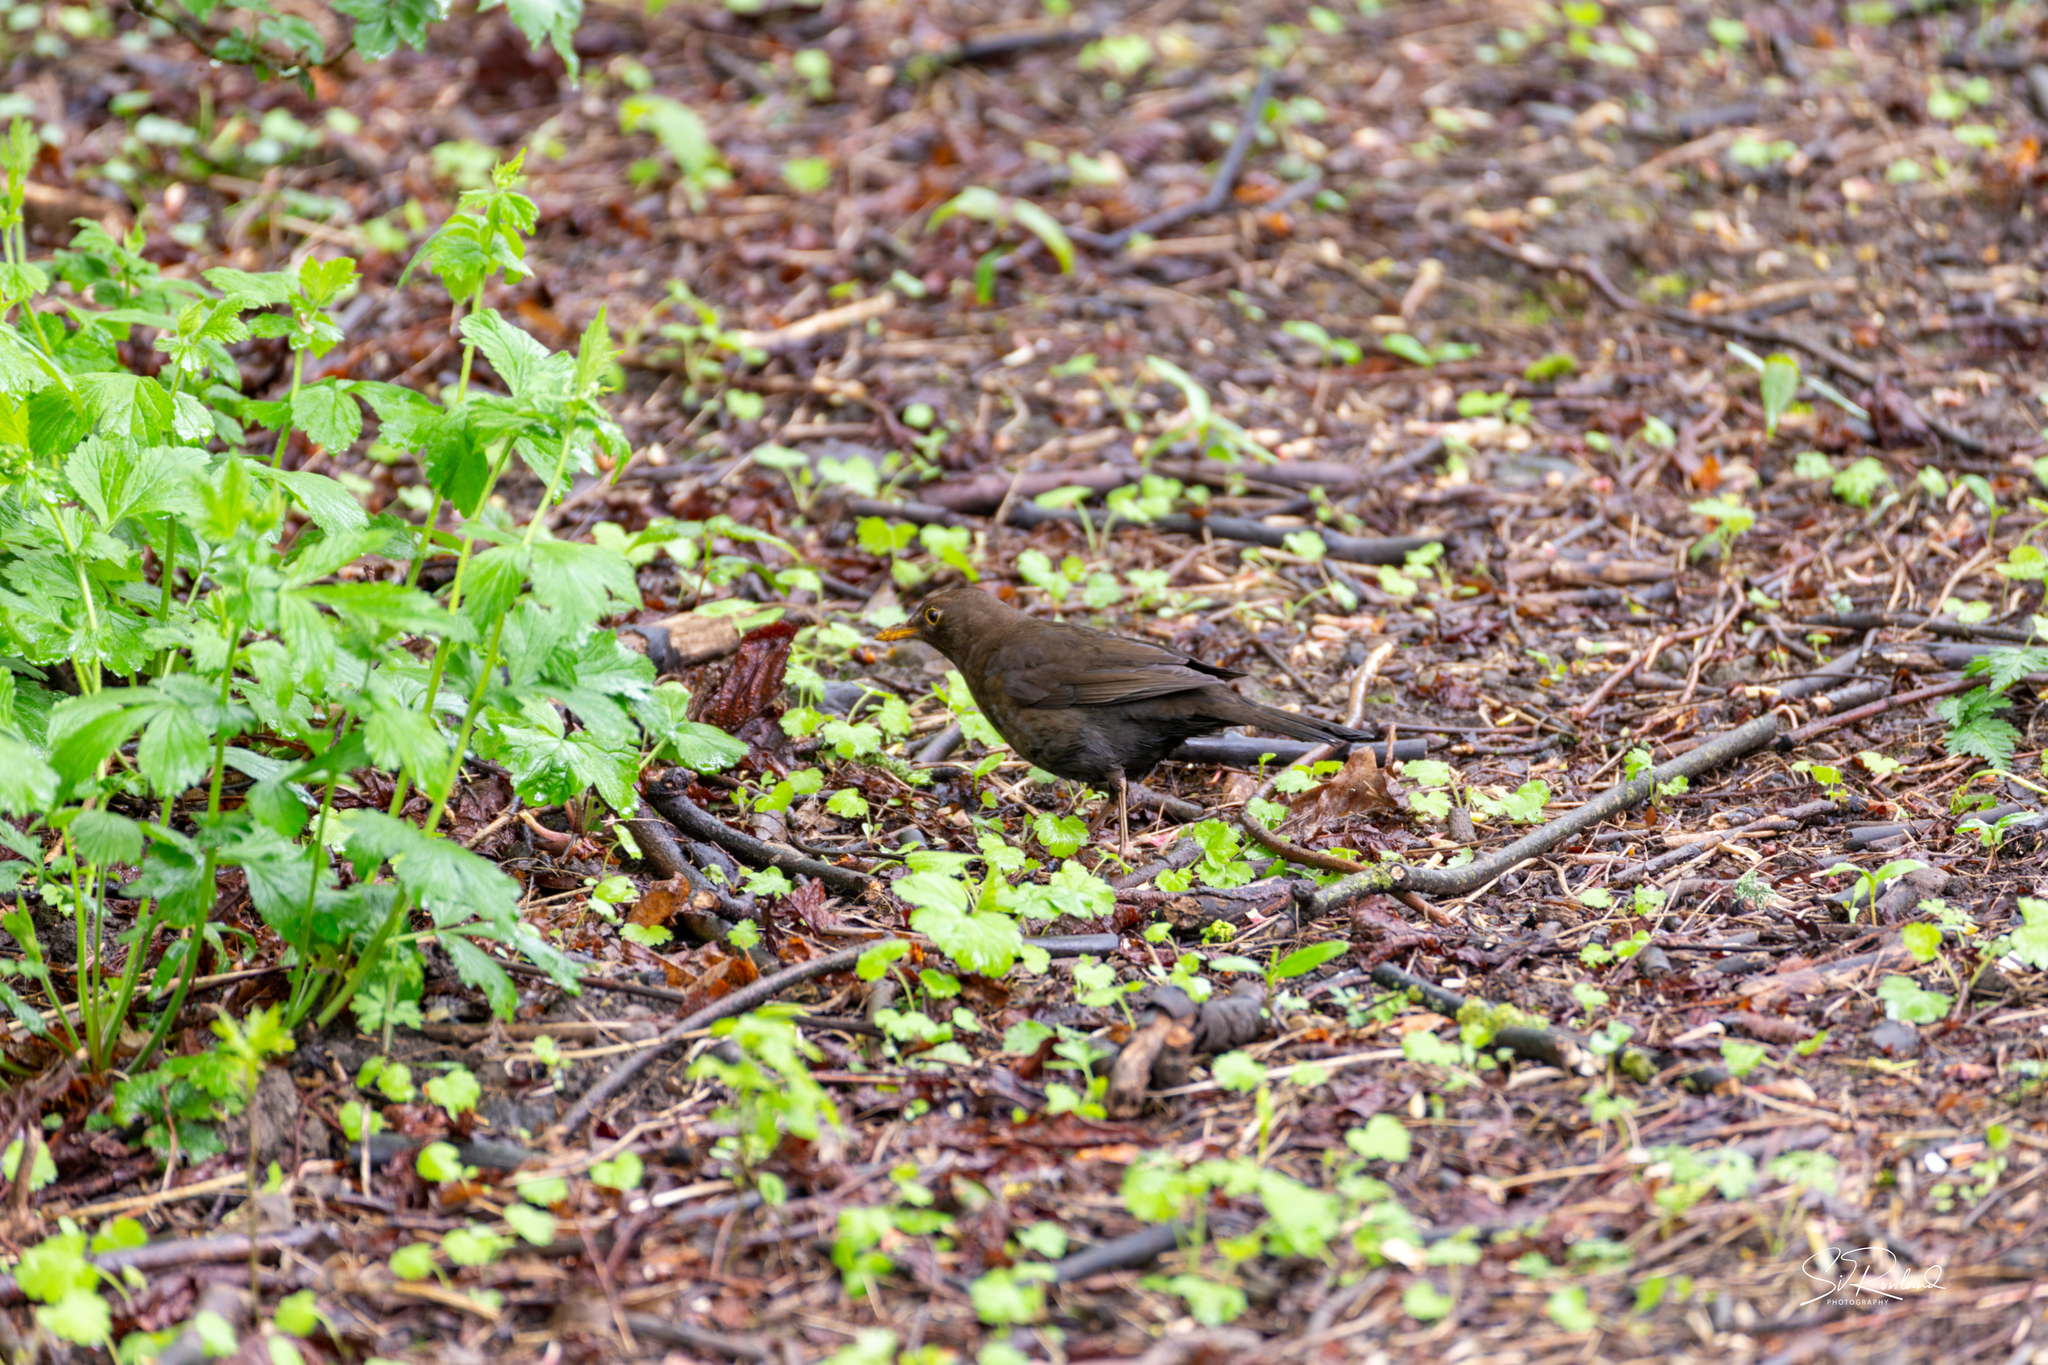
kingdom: Animalia
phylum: Chordata
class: Aves
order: Passeriformes
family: Turdidae
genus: Turdus
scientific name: Turdus merula
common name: Common blackbird
